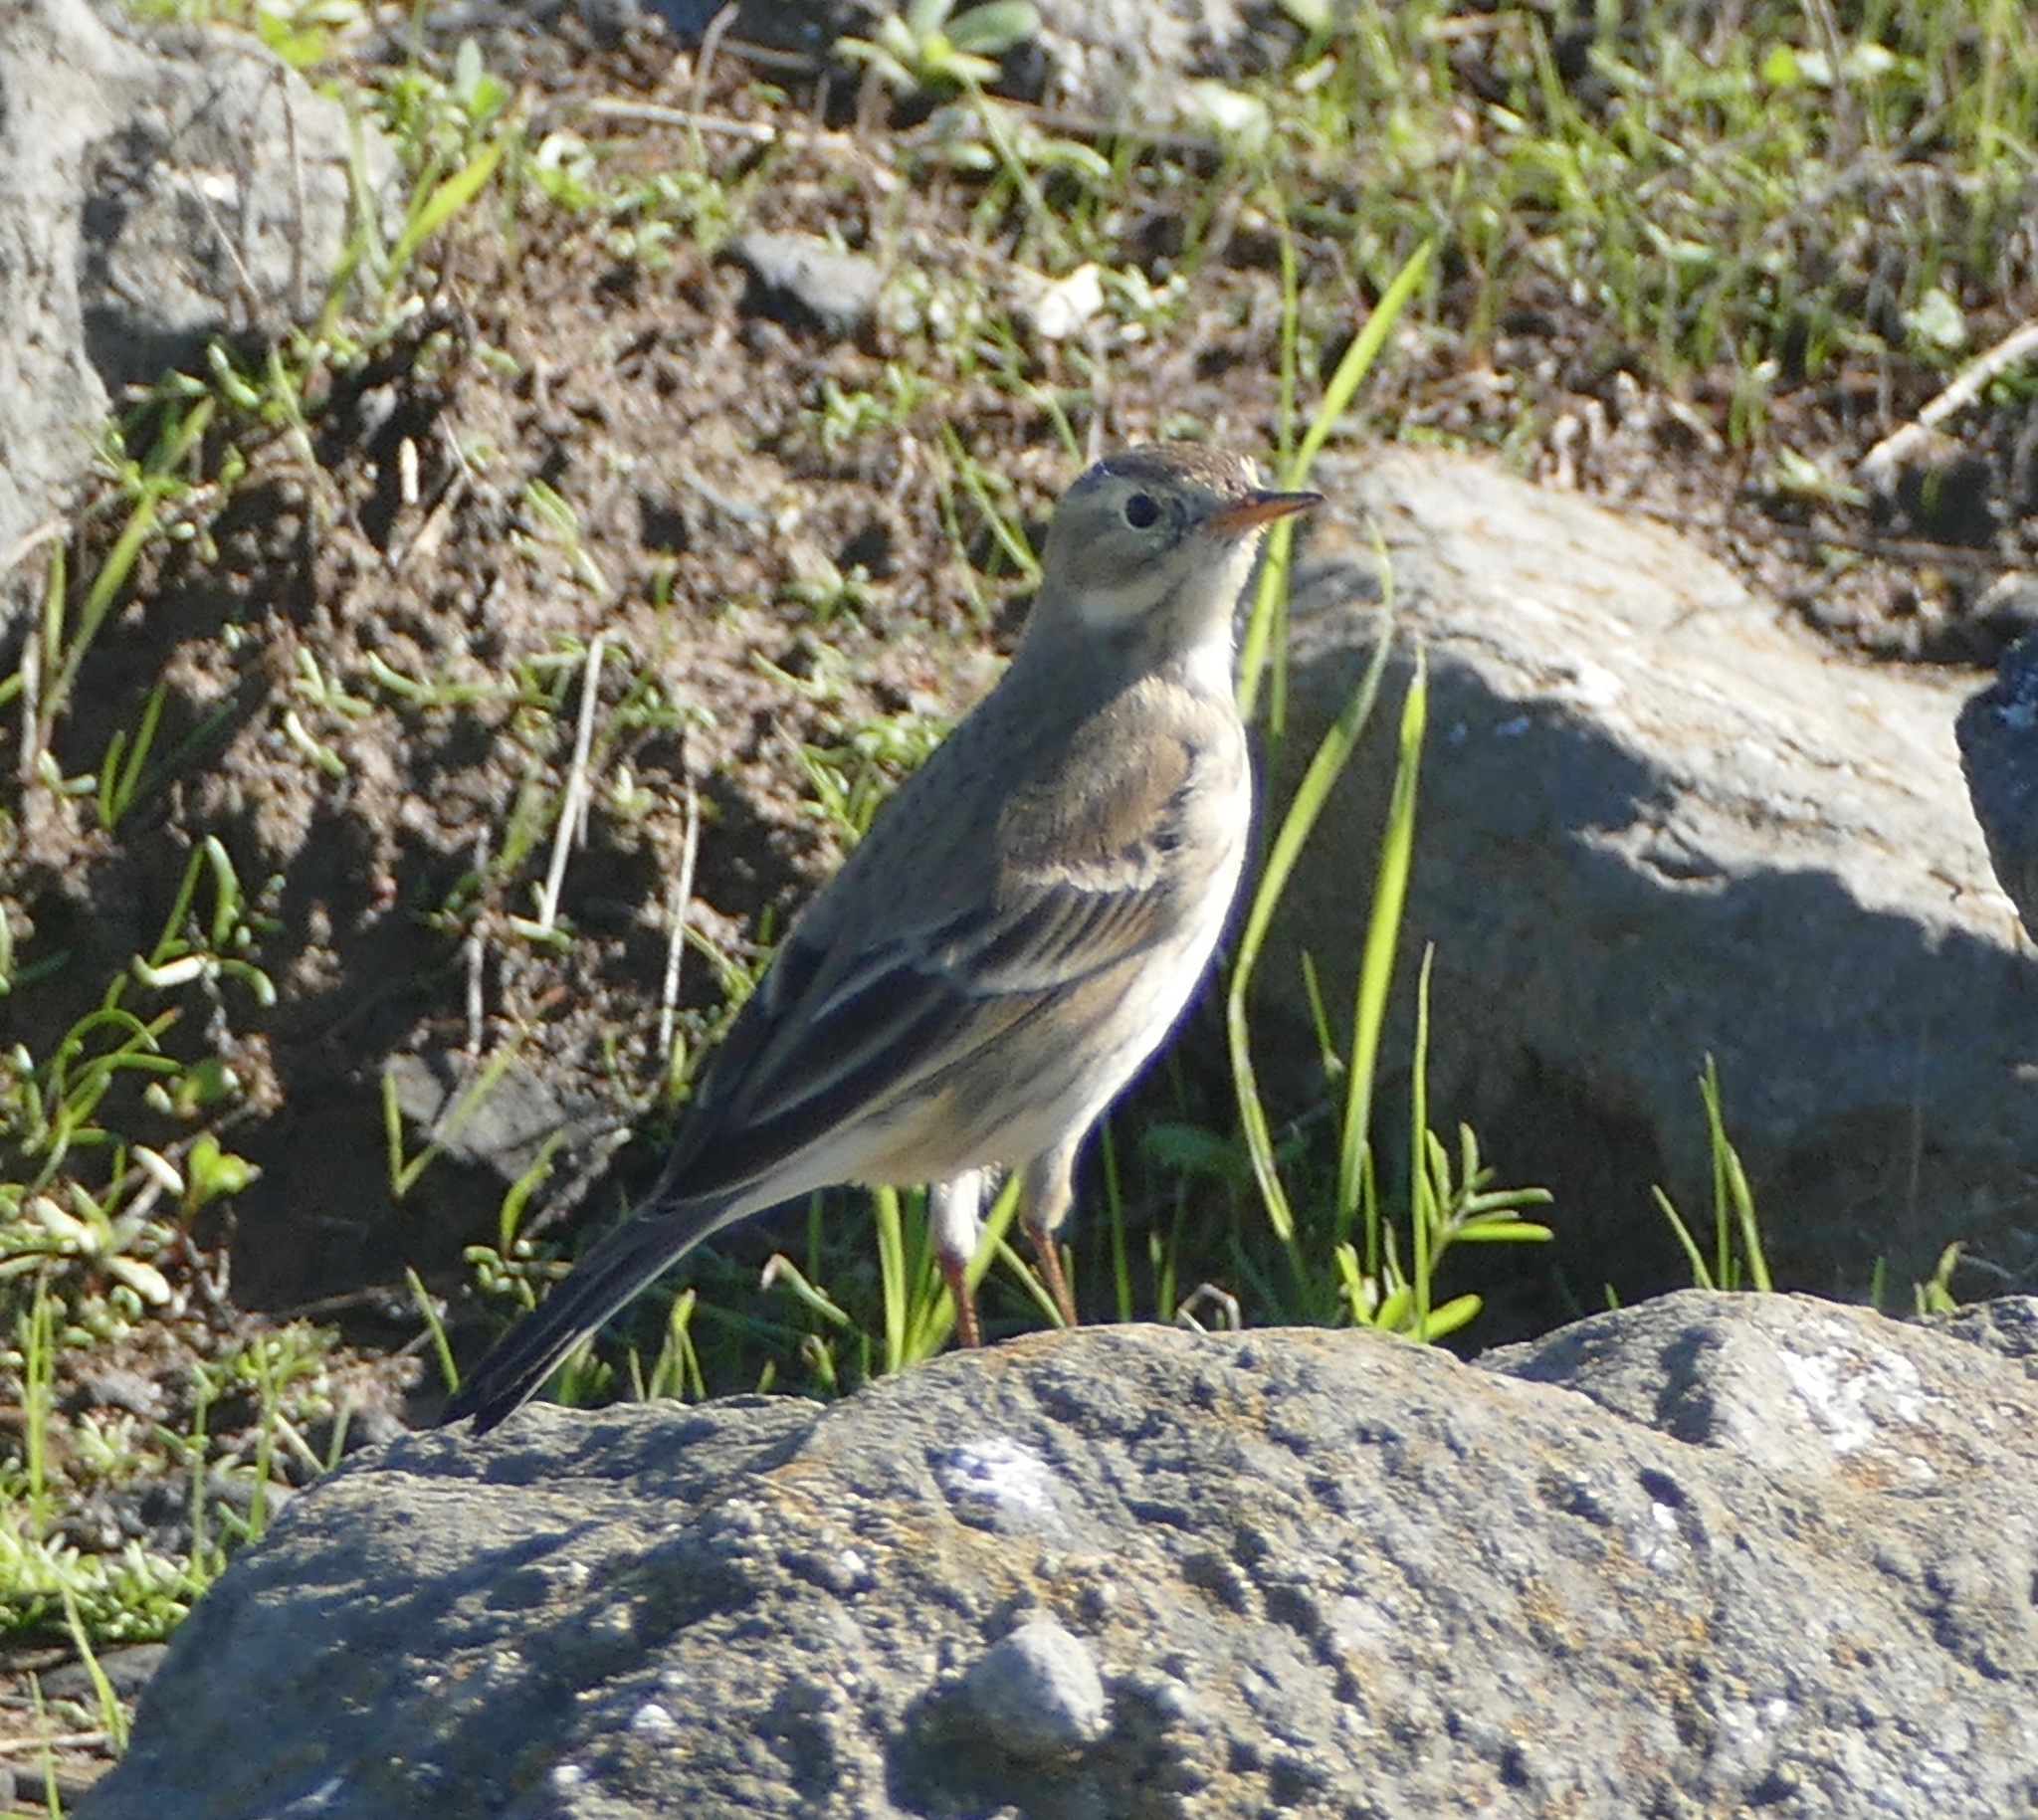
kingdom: Animalia
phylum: Chordata
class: Aves
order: Passeriformes
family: Motacillidae
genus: Anthus
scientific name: Anthus rubescens
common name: Buff-bellied pipit
